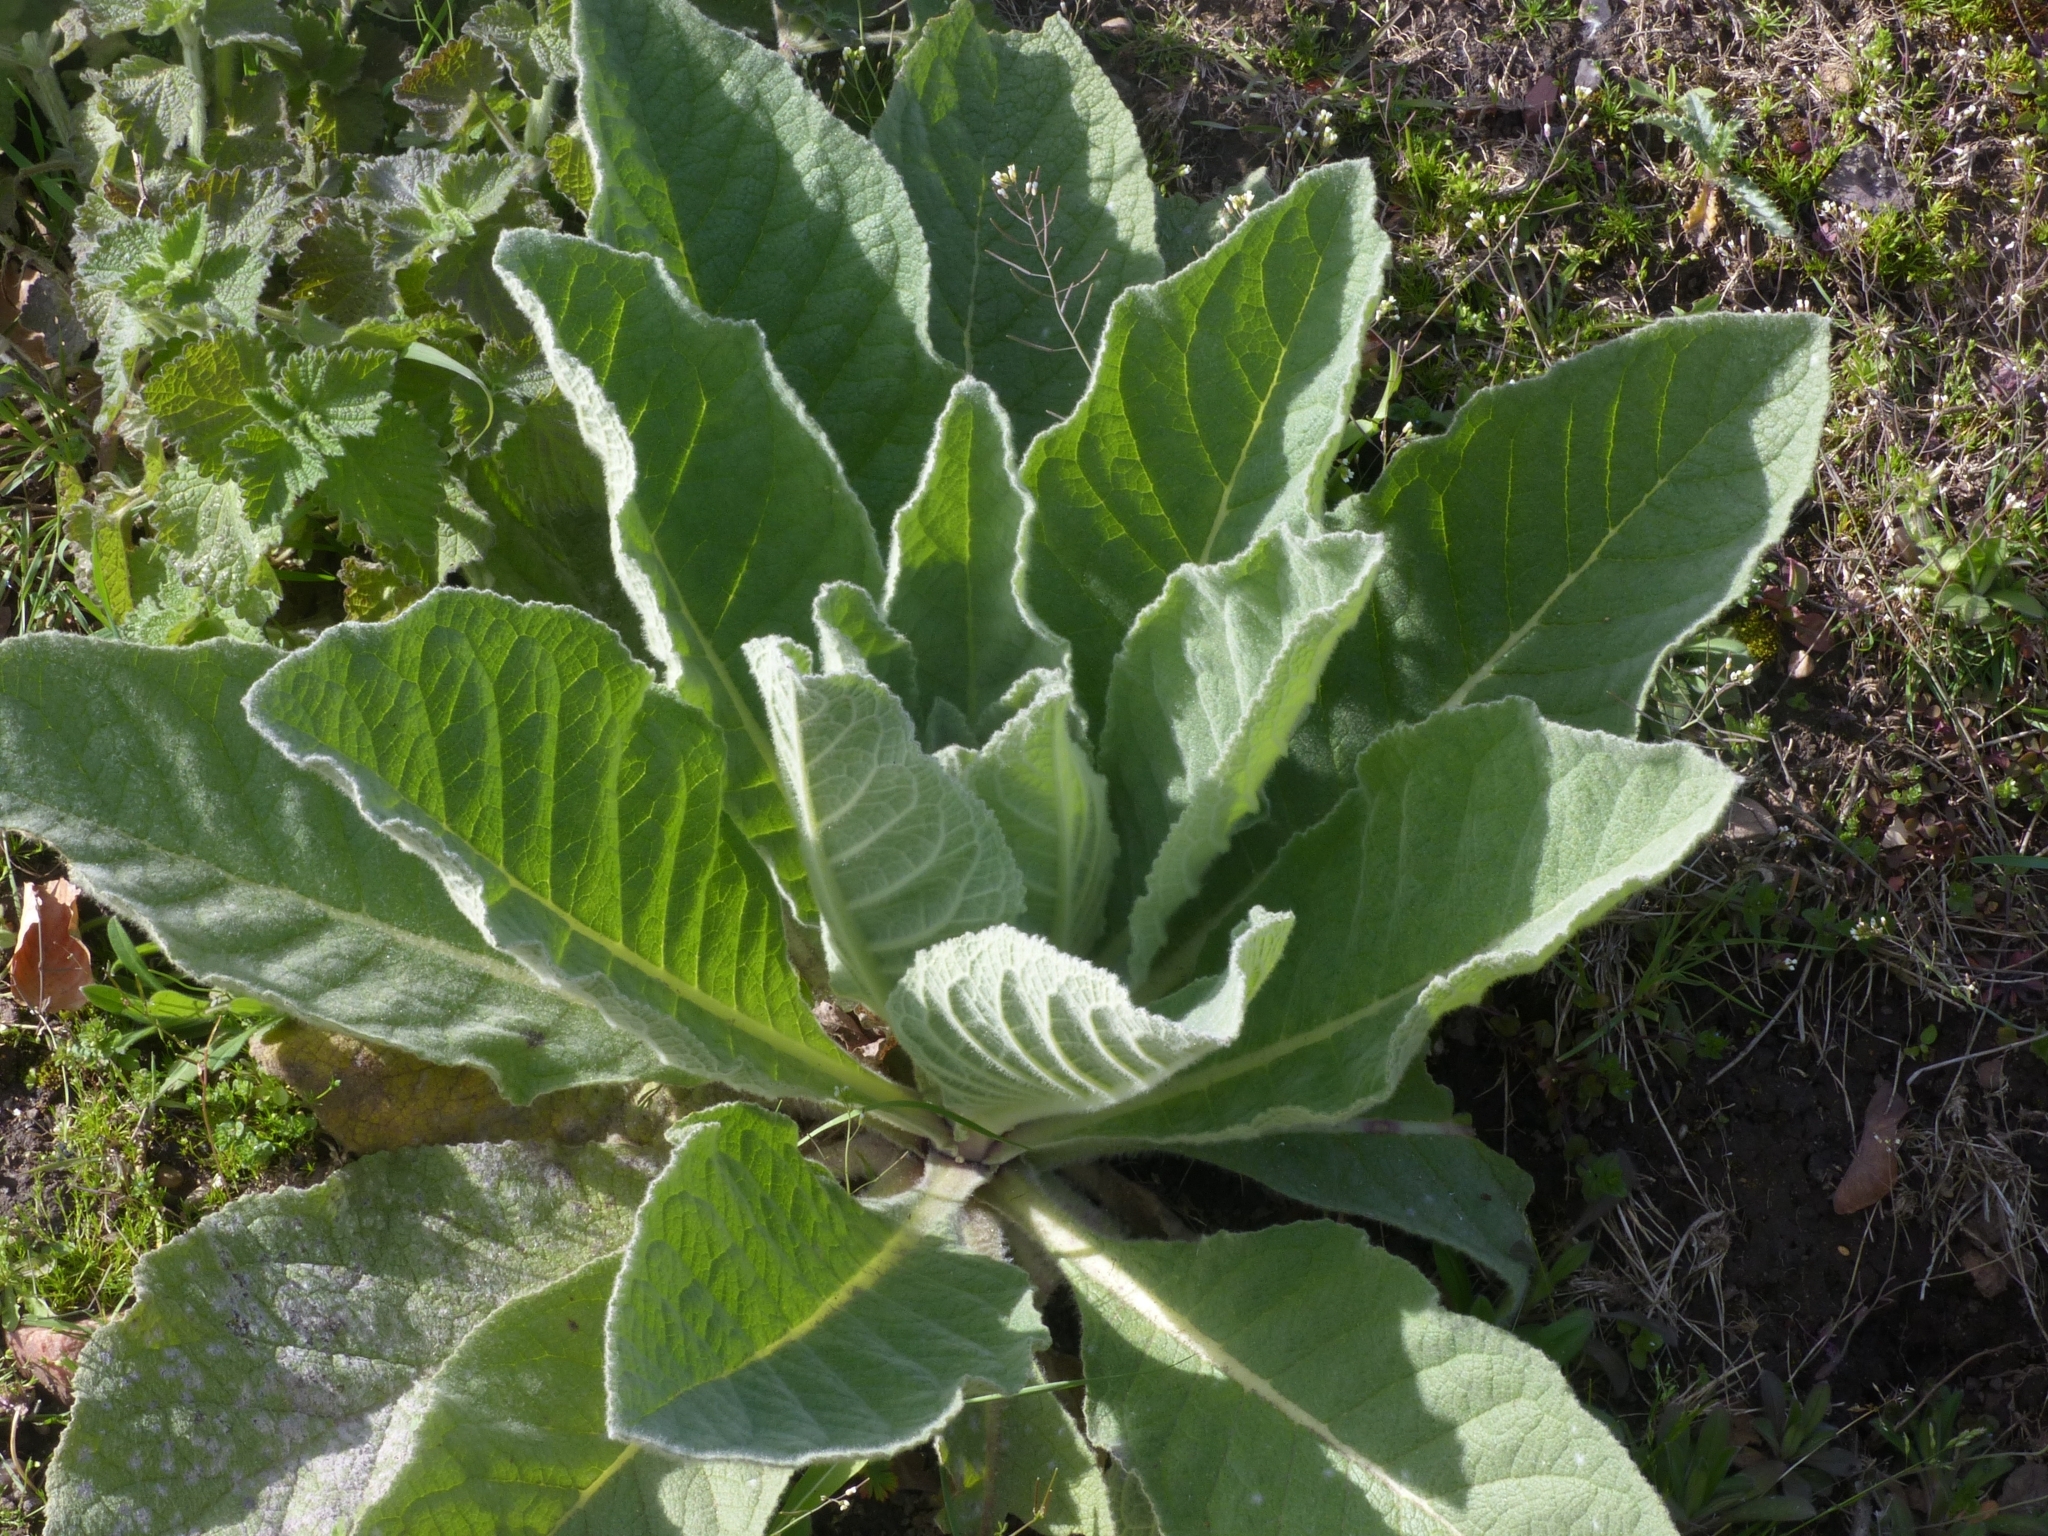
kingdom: Plantae
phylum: Tracheophyta
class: Magnoliopsida
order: Lamiales
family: Scrophulariaceae
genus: Verbascum
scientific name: Verbascum thapsus
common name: Common mullein
